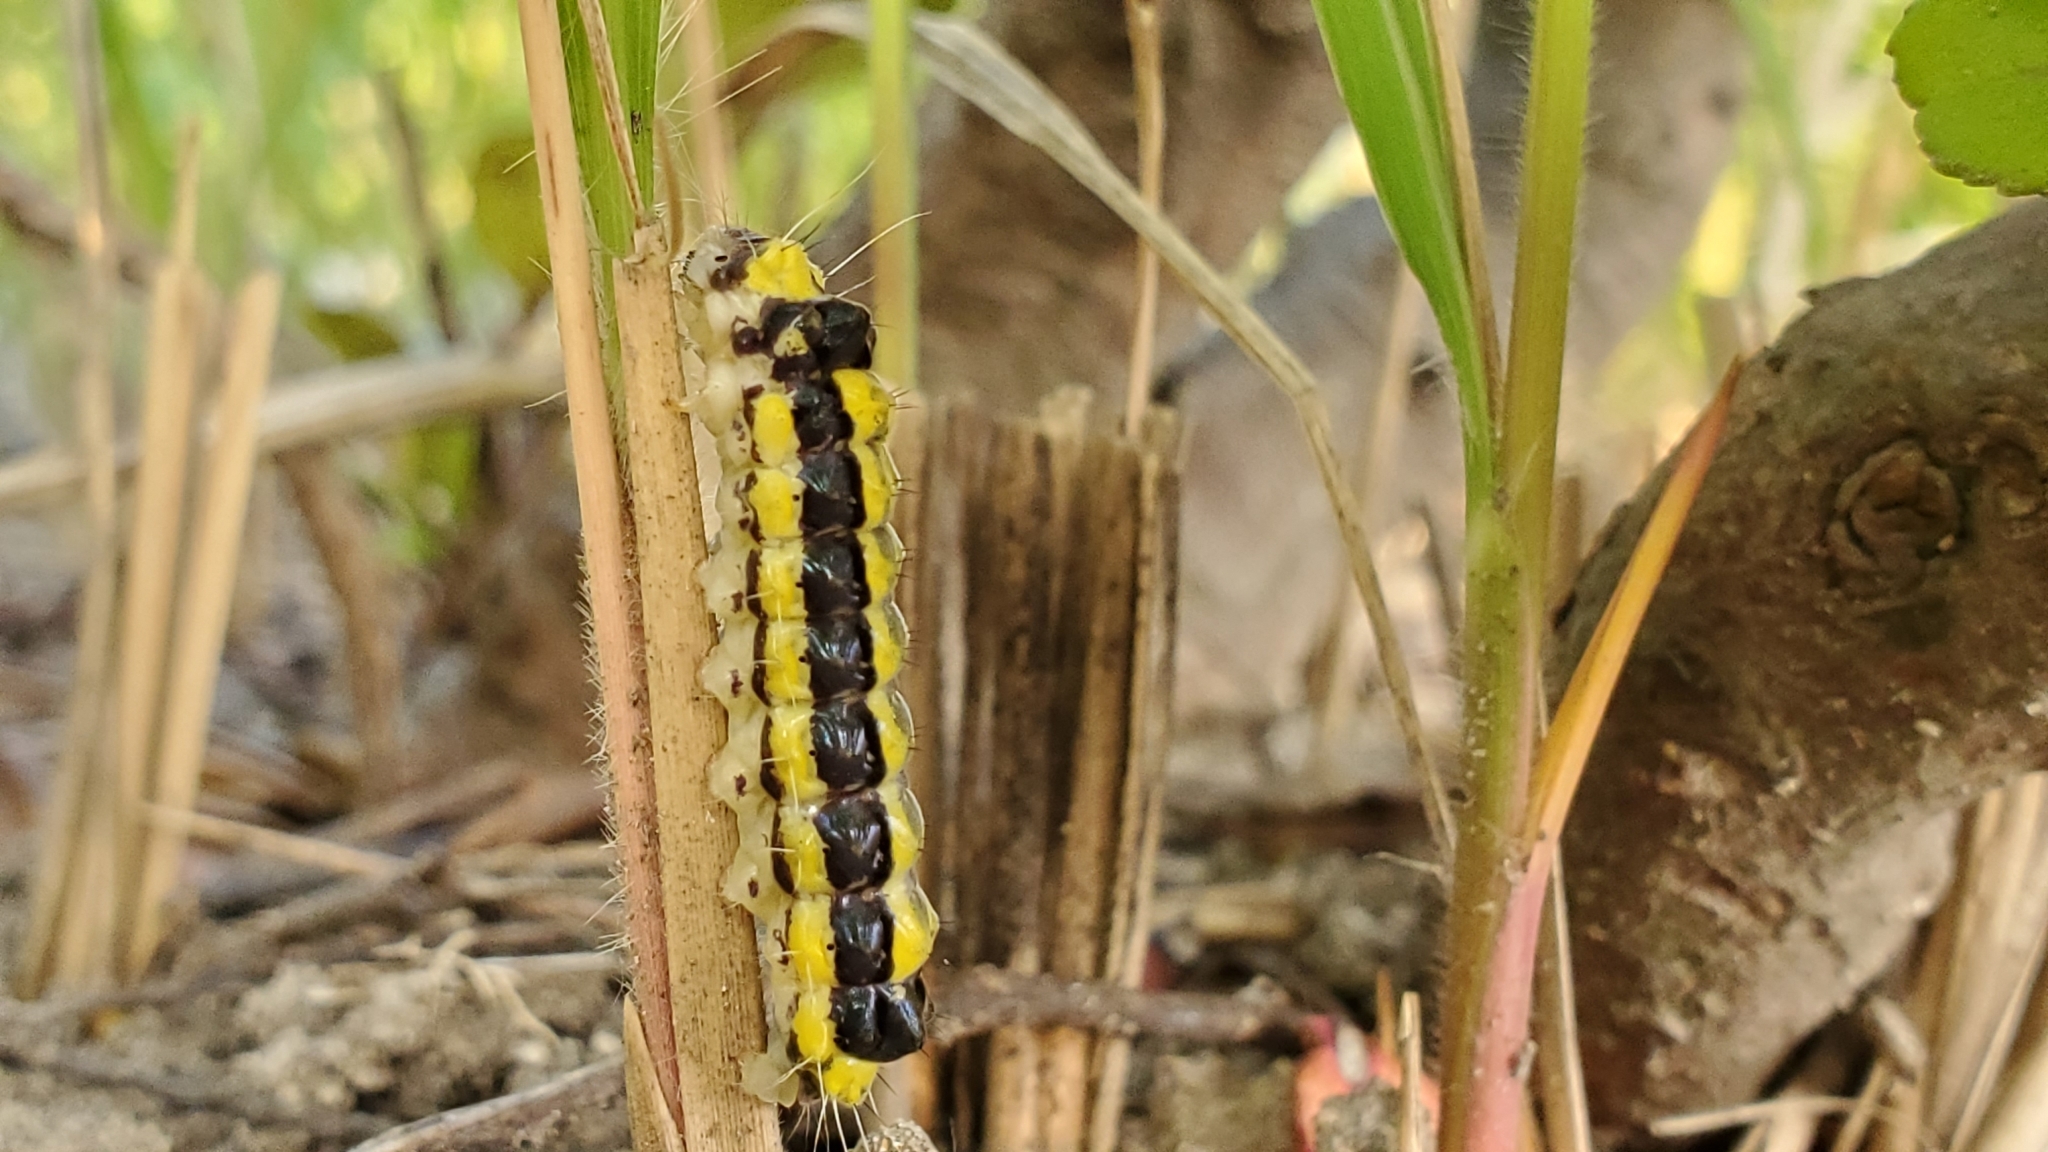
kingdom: Animalia
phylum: Arthropoda
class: Insecta
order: Lepidoptera
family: Zygaenidae
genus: Pidorus
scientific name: Pidorus glaucopis
